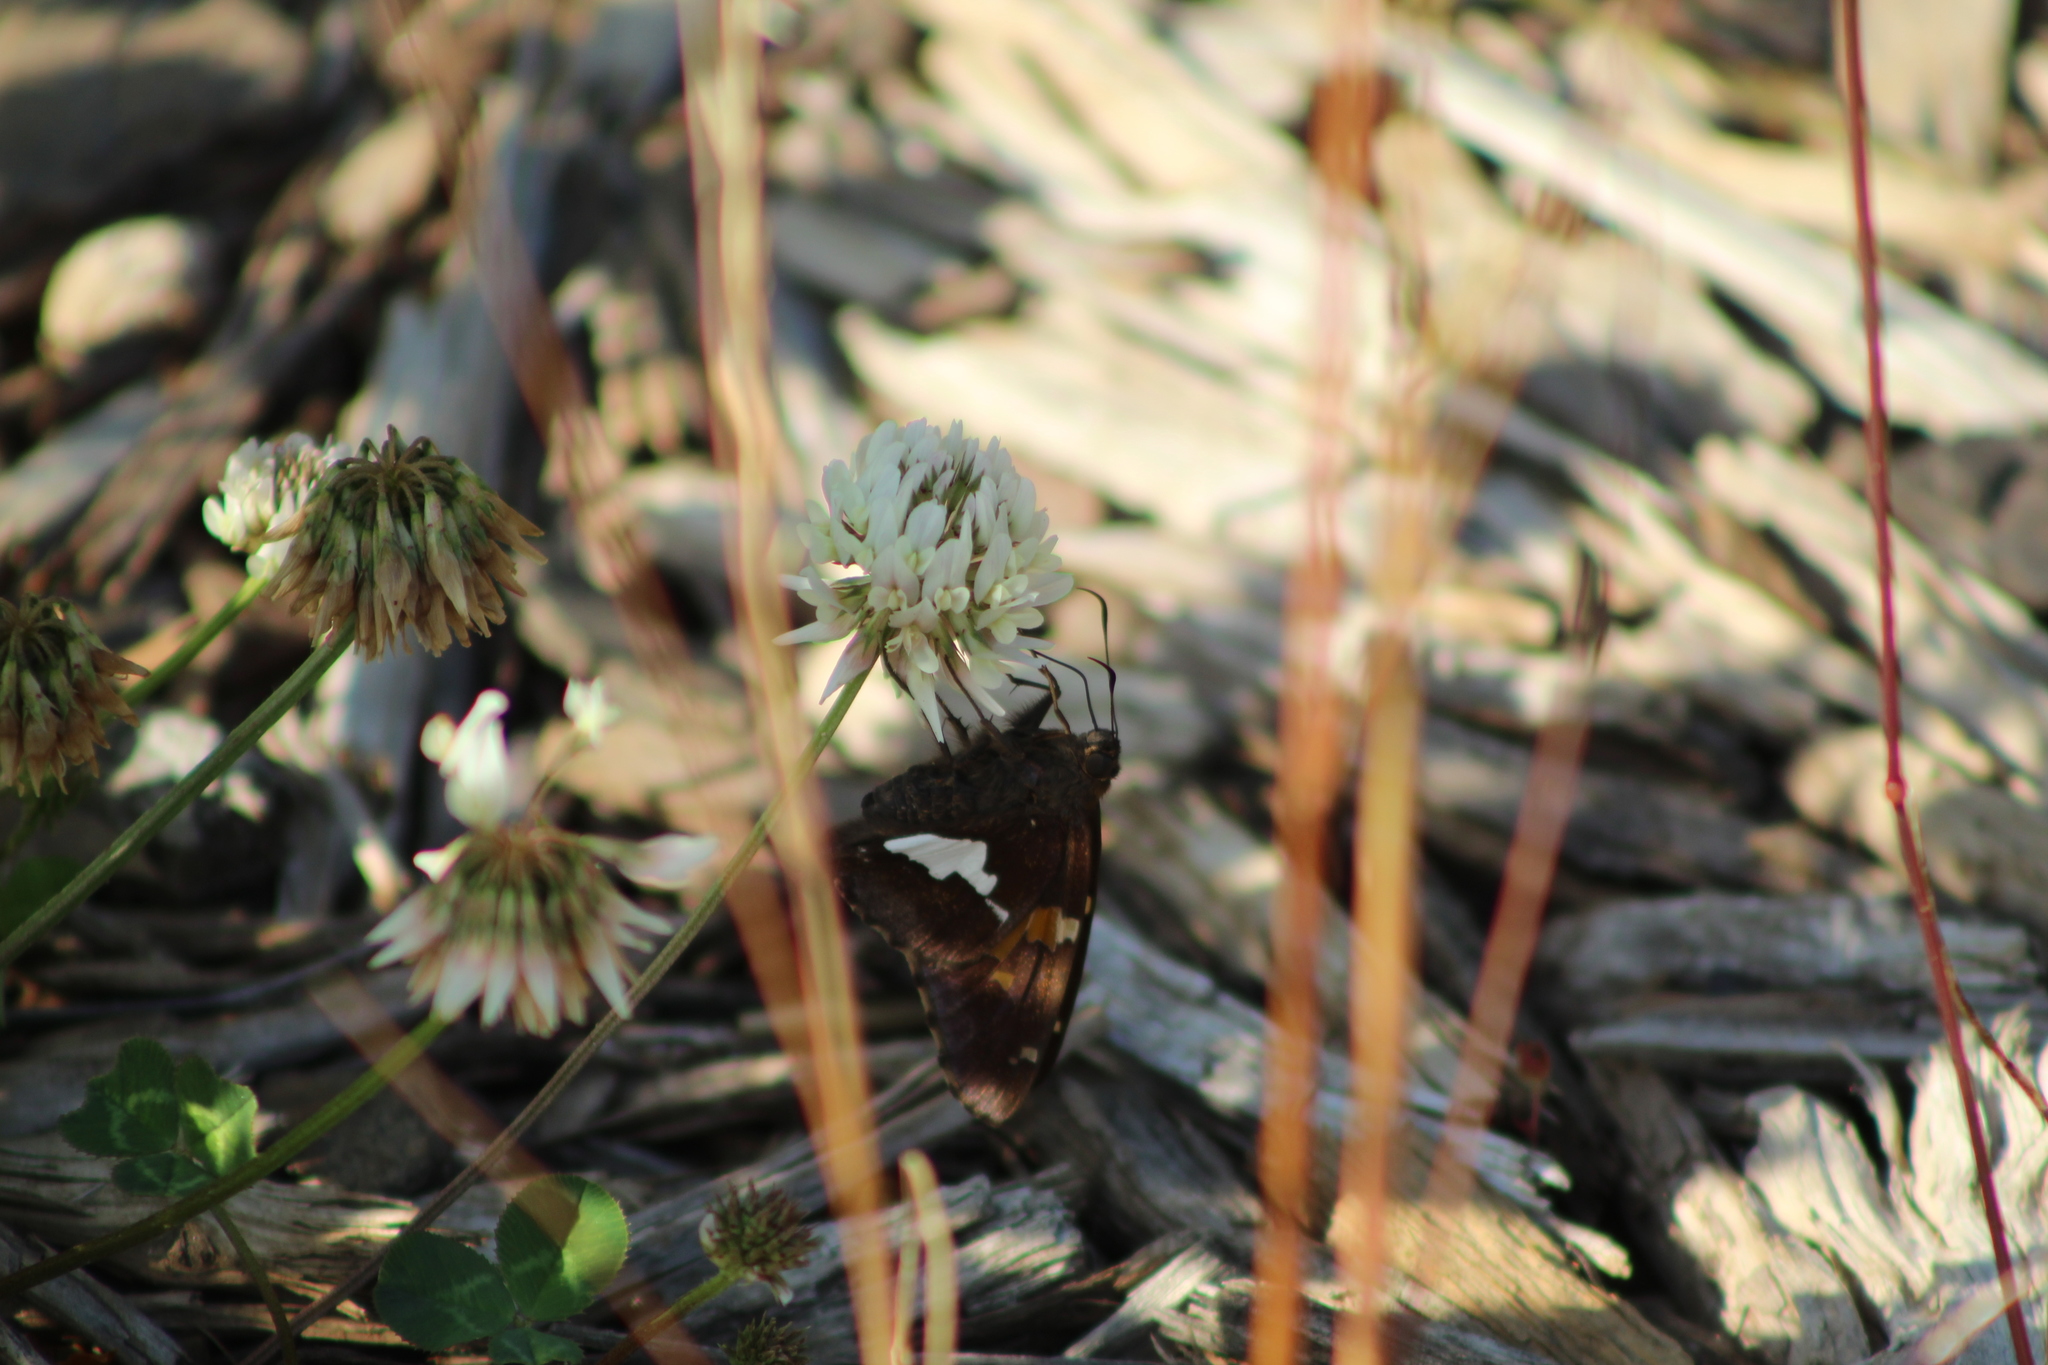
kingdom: Animalia
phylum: Arthropoda
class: Insecta
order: Lepidoptera
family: Hesperiidae
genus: Epargyreus
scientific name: Epargyreus clarus
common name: Silver-spotted skipper
